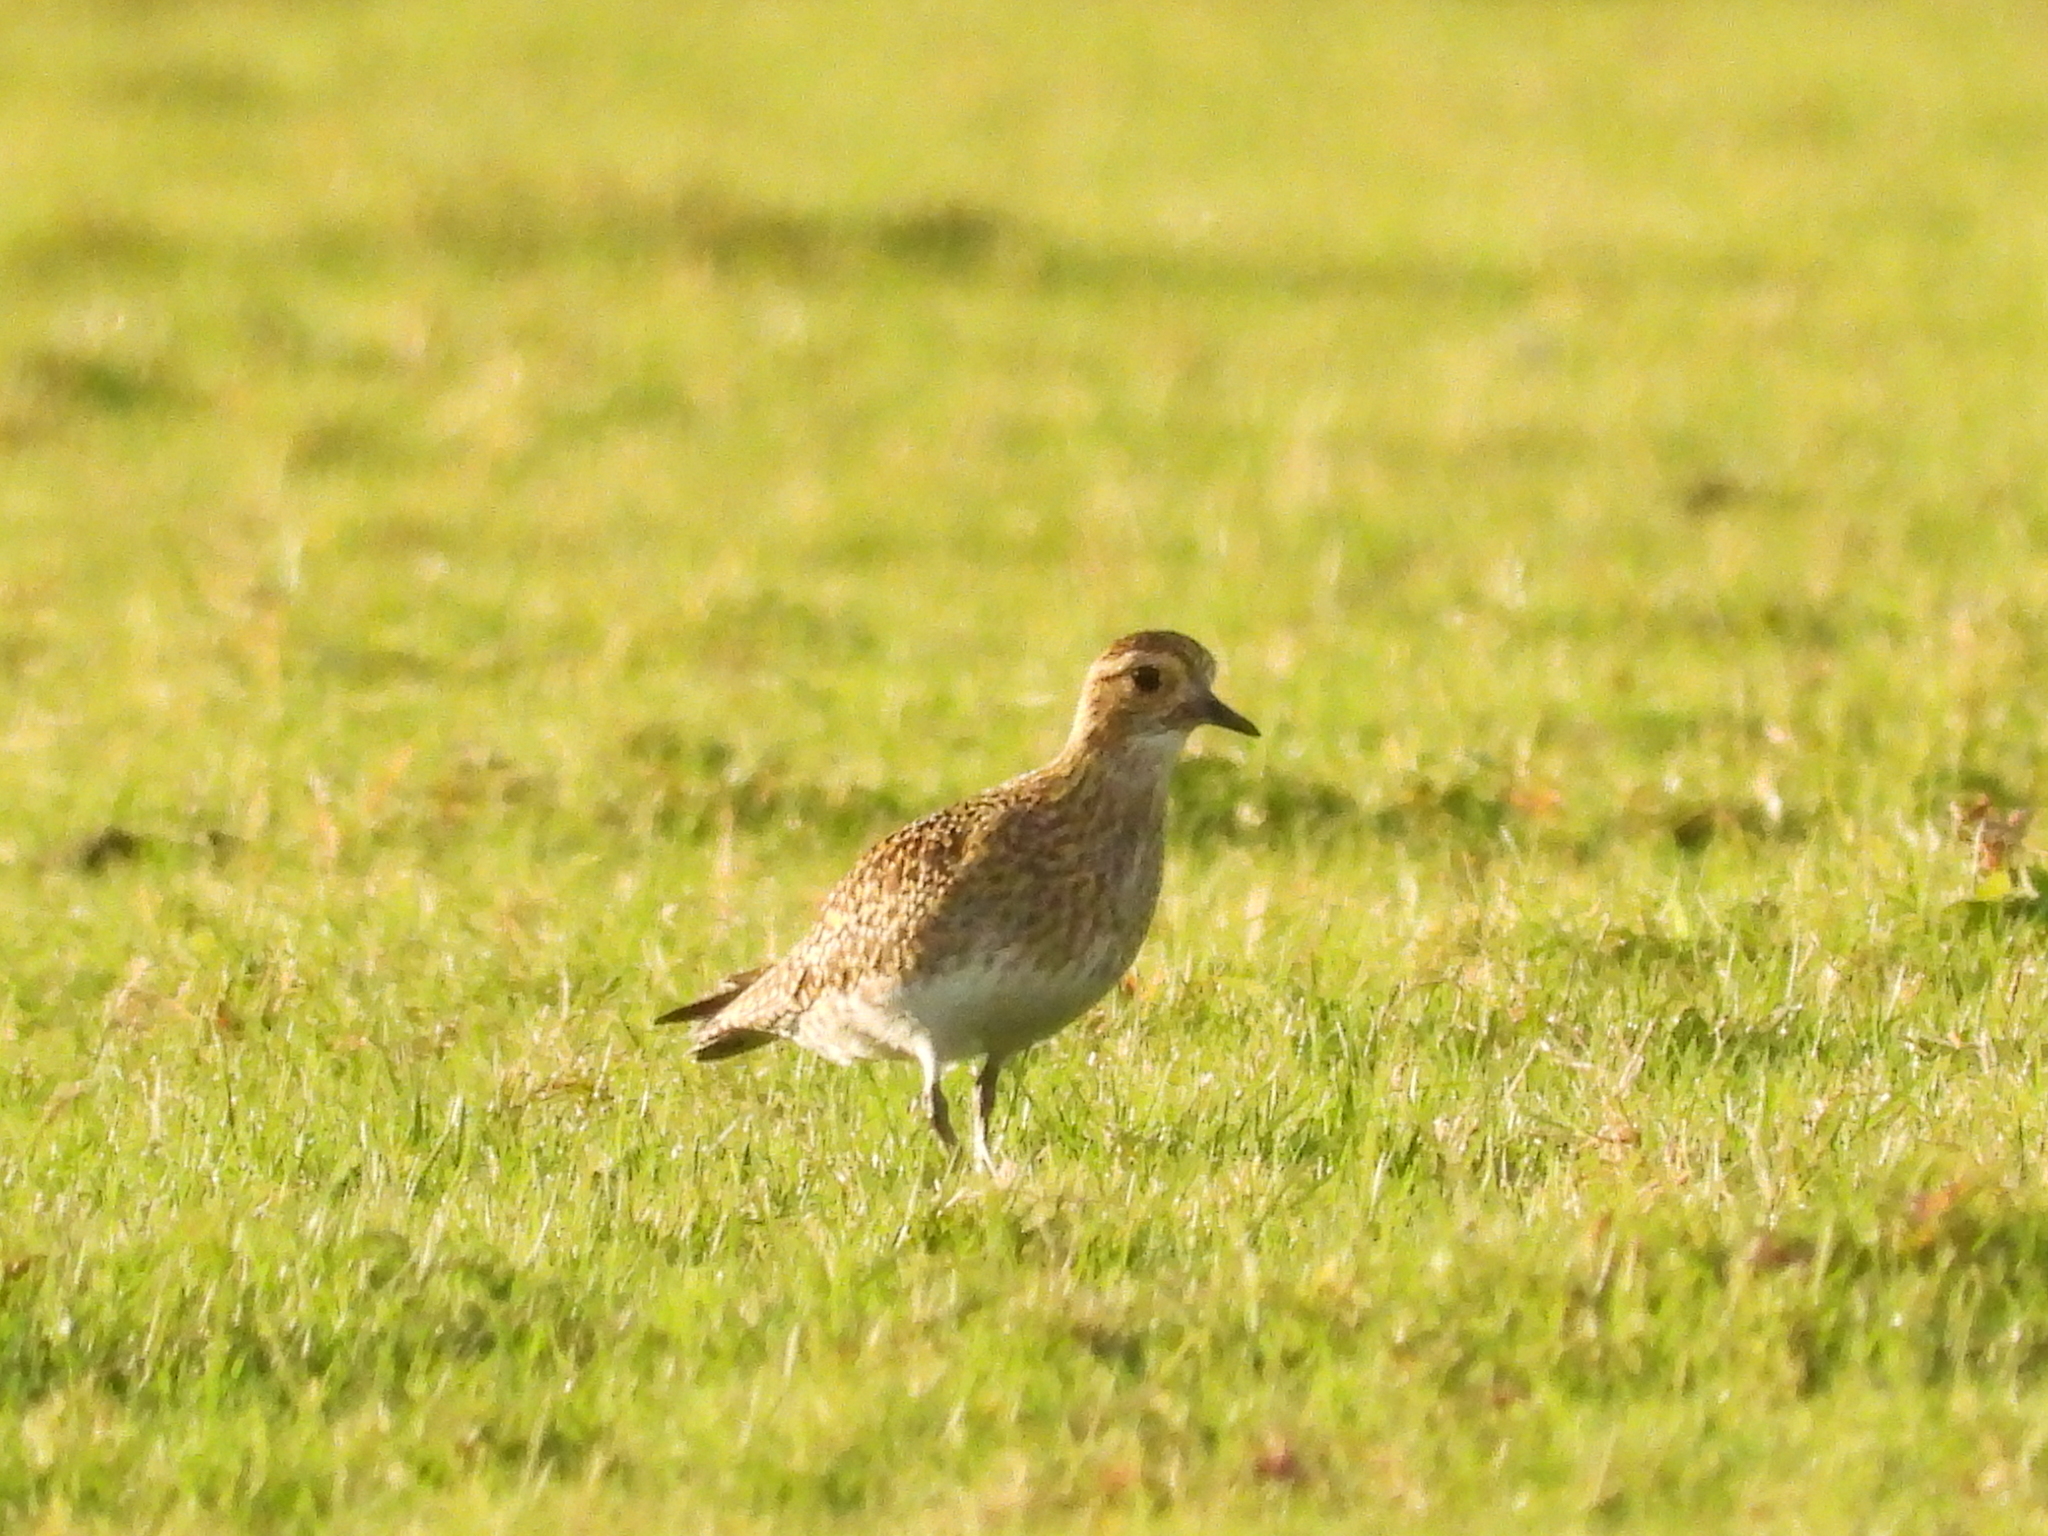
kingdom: Animalia
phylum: Chordata
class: Aves
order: Charadriiformes
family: Charadriidae
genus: Pluvialis
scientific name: Pluvialis apricaria
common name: European golden plover
